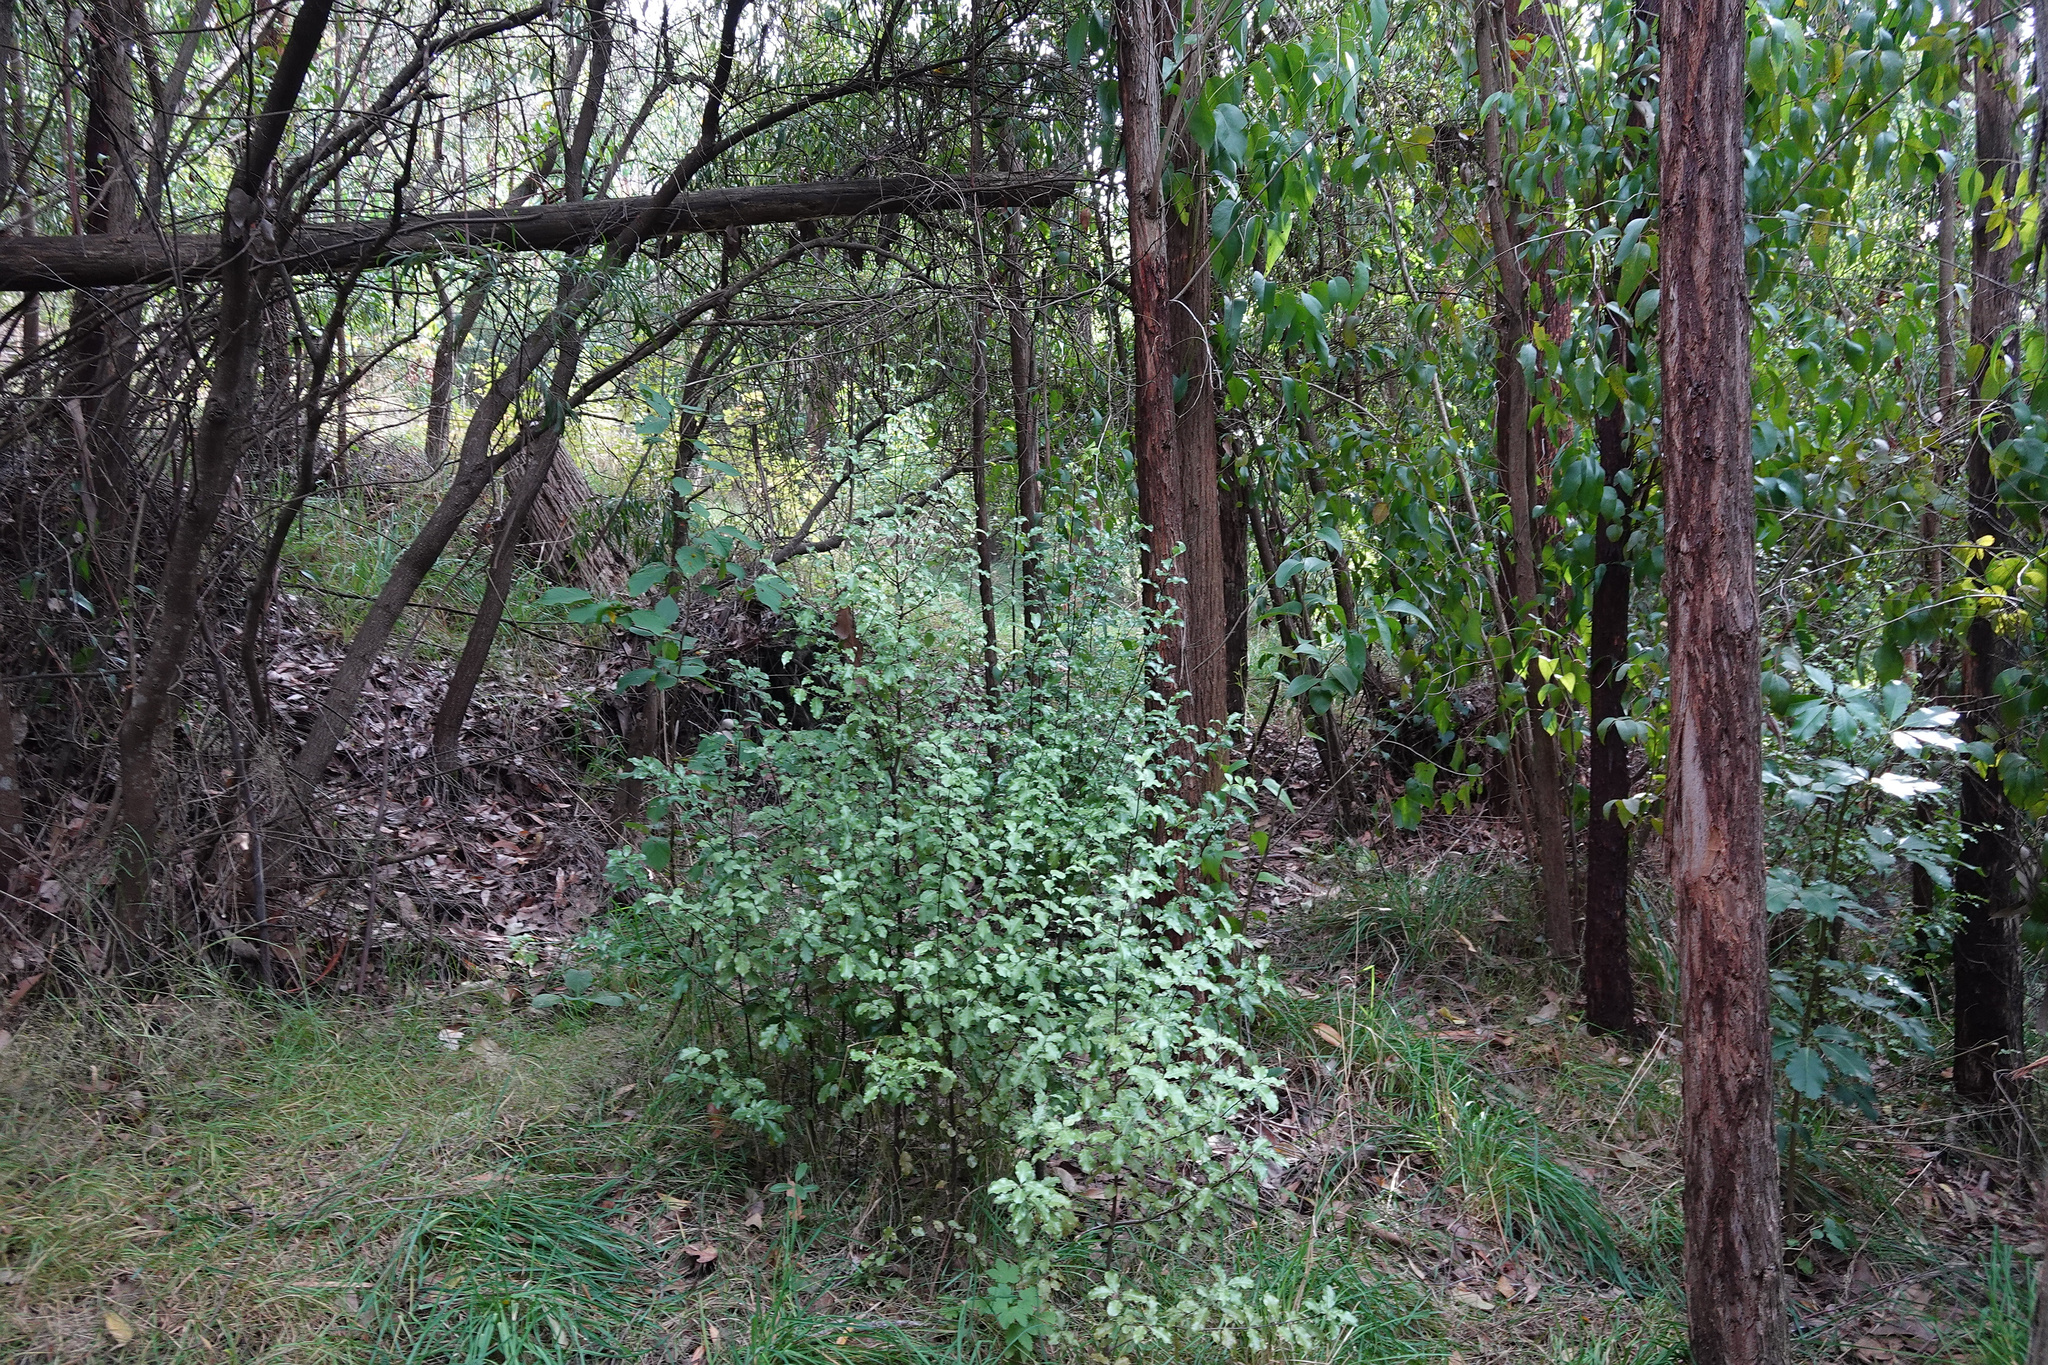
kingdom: Plantae
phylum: Tracheophyta
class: Magnoliopsida
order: Apiales
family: Pittosporaceae
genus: Pittosporum
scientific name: Pittosporum tenuifolium
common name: Kohuhu
